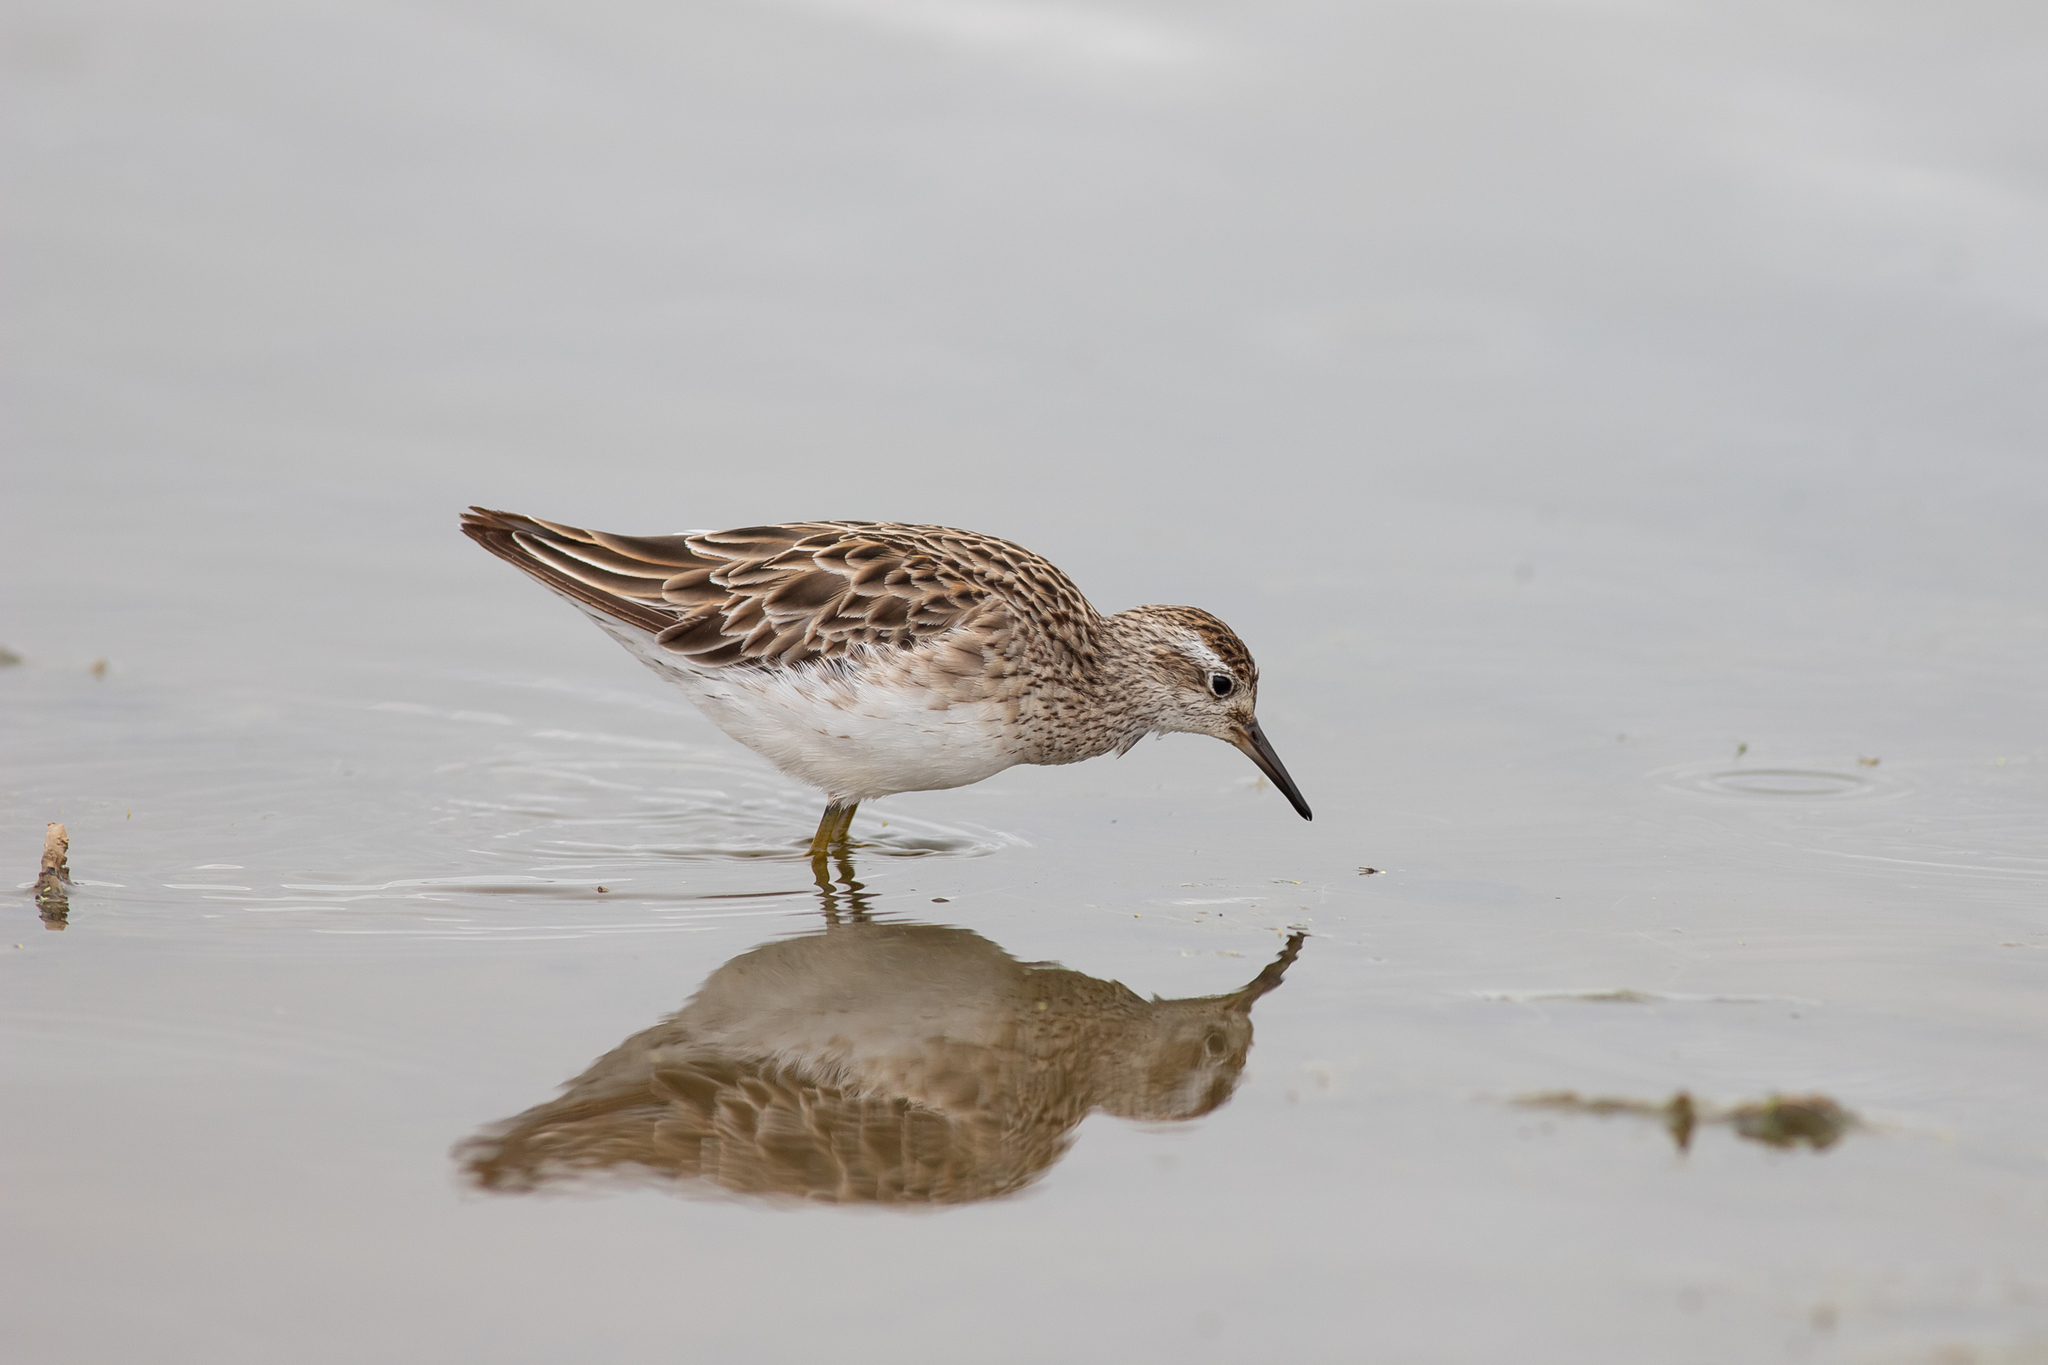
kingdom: Animalia
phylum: Chordata
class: Aves
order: Charadriiformes
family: Scolopacidae
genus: Calidris
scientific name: Calidris acuminata
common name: Sharp-tailed sandpiper
